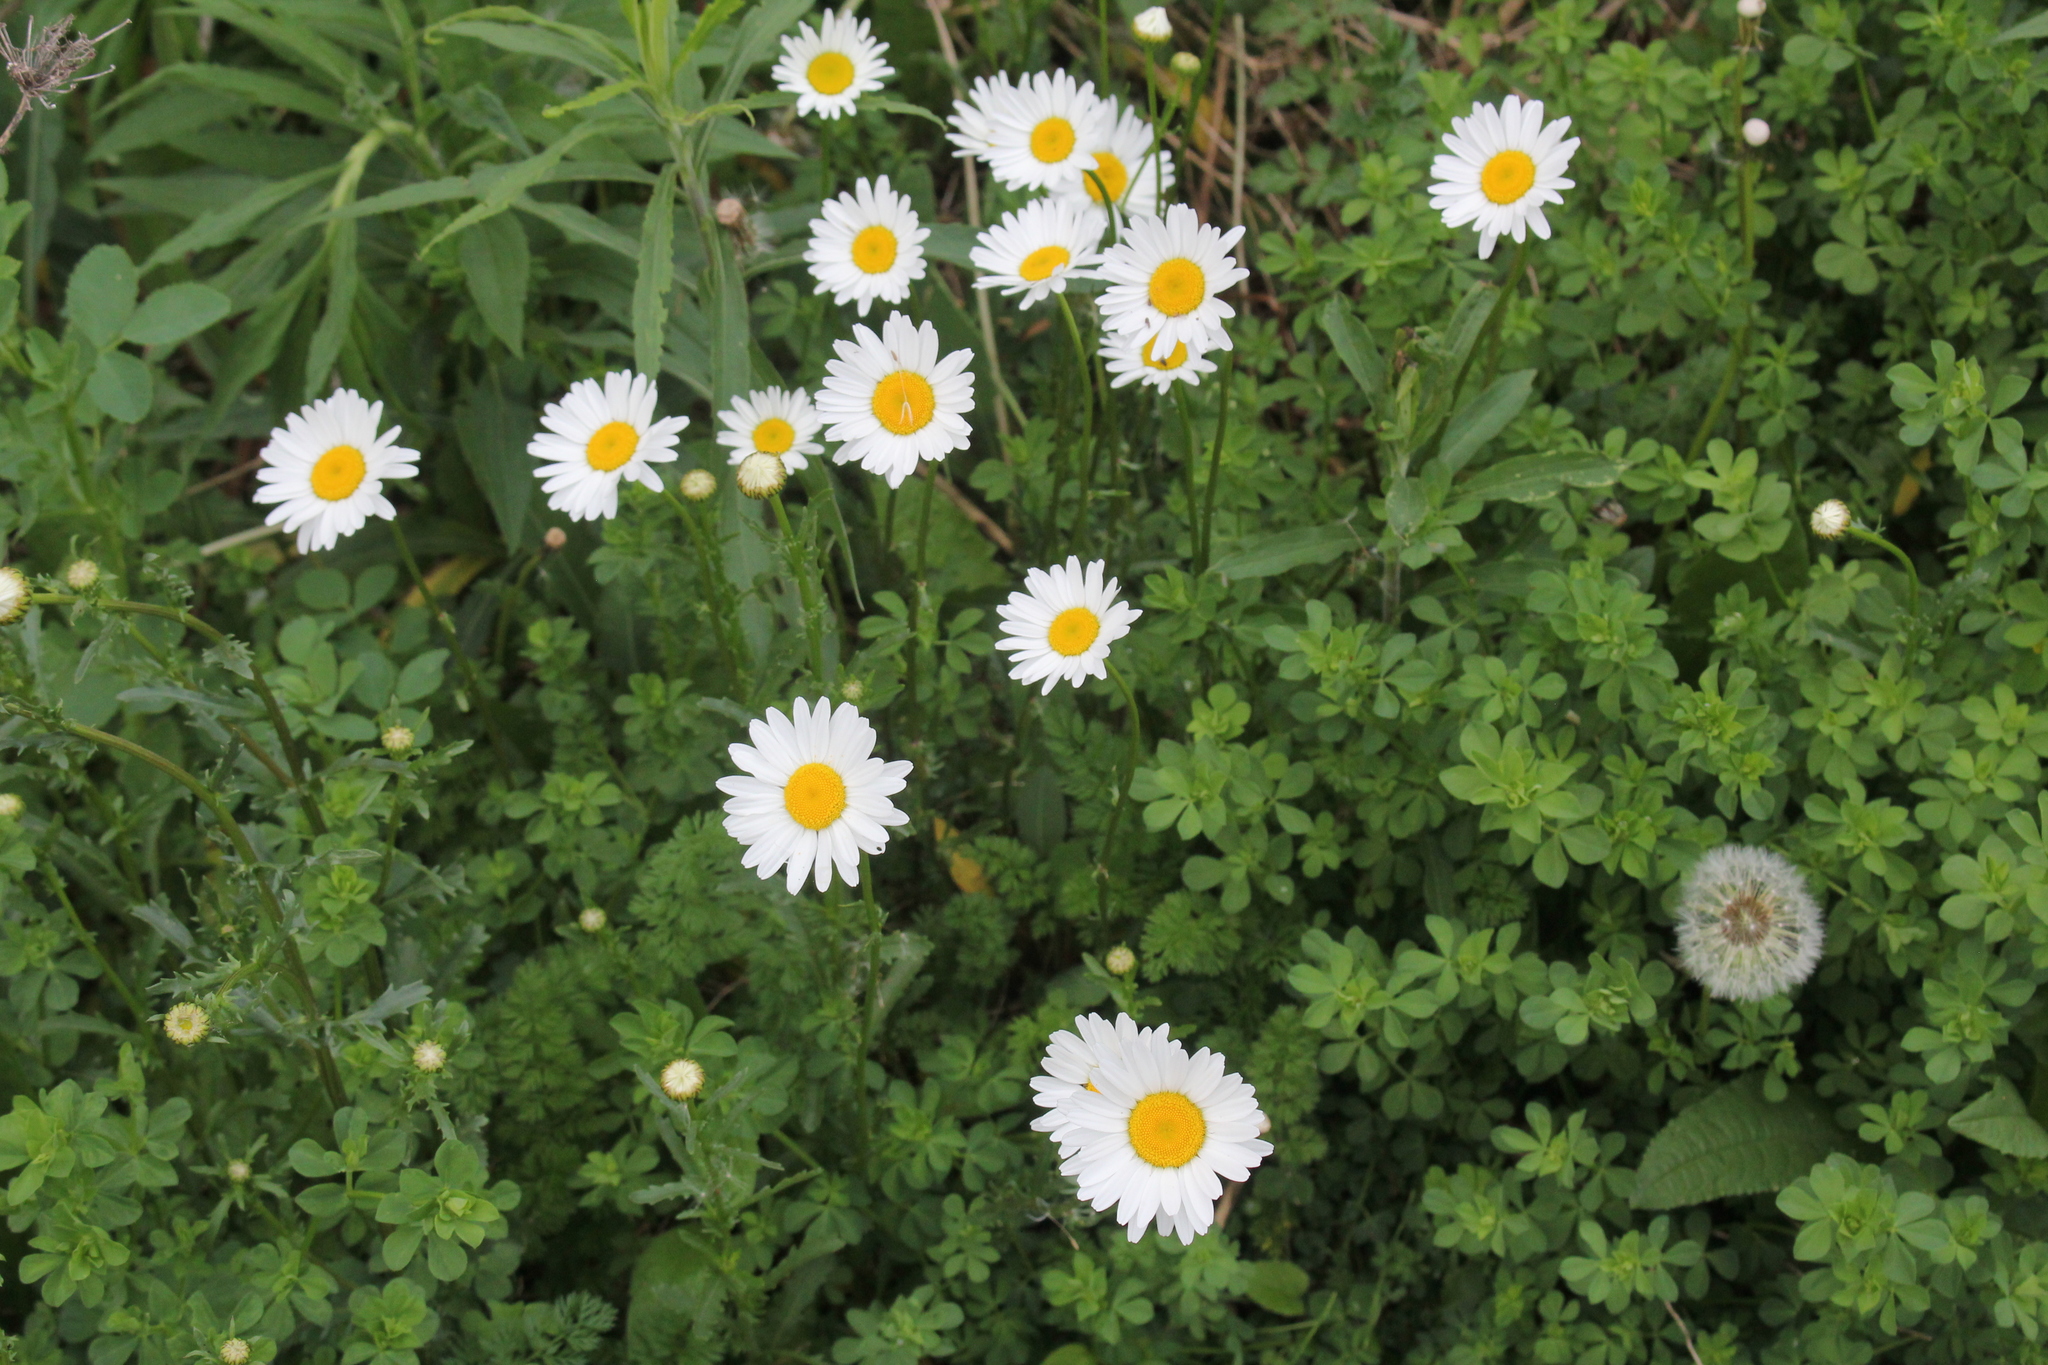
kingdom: Plantae
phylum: Tracheophyta
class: Magnoliopsida
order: Asterales
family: Asteraceae
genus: Leucanthemum
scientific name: Leucanthemum vulgare
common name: Oxeye daisy
